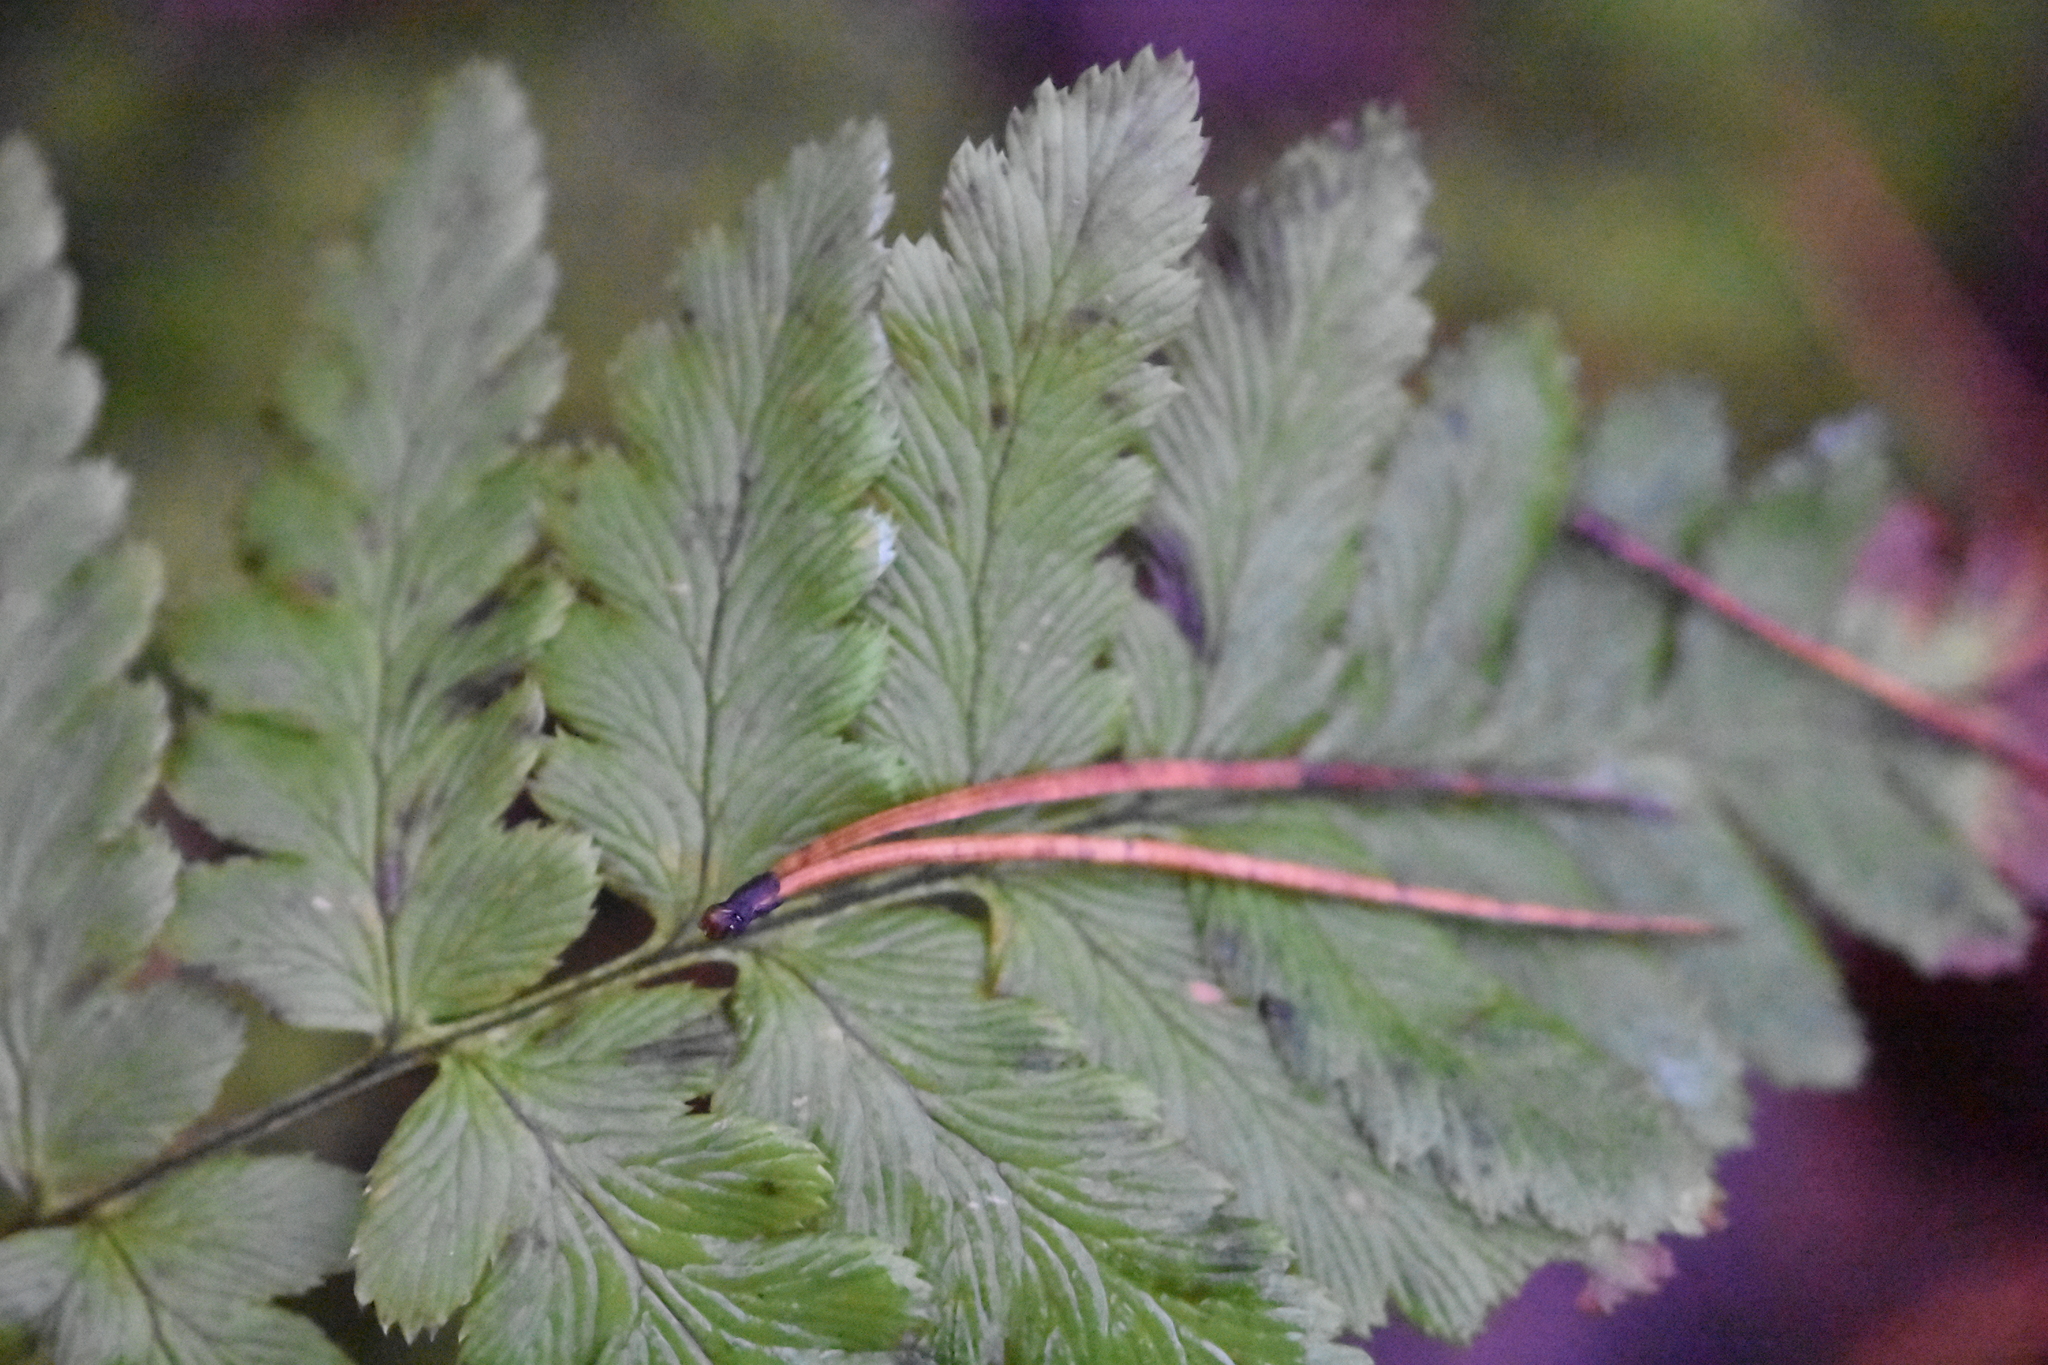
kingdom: Plantae
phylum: Tracheophyta
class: Polypodiopsida
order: Polypodiales
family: Dryopteridaceae
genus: Dryopteris
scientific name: Dryopteris cristata
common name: Crested wood fern
